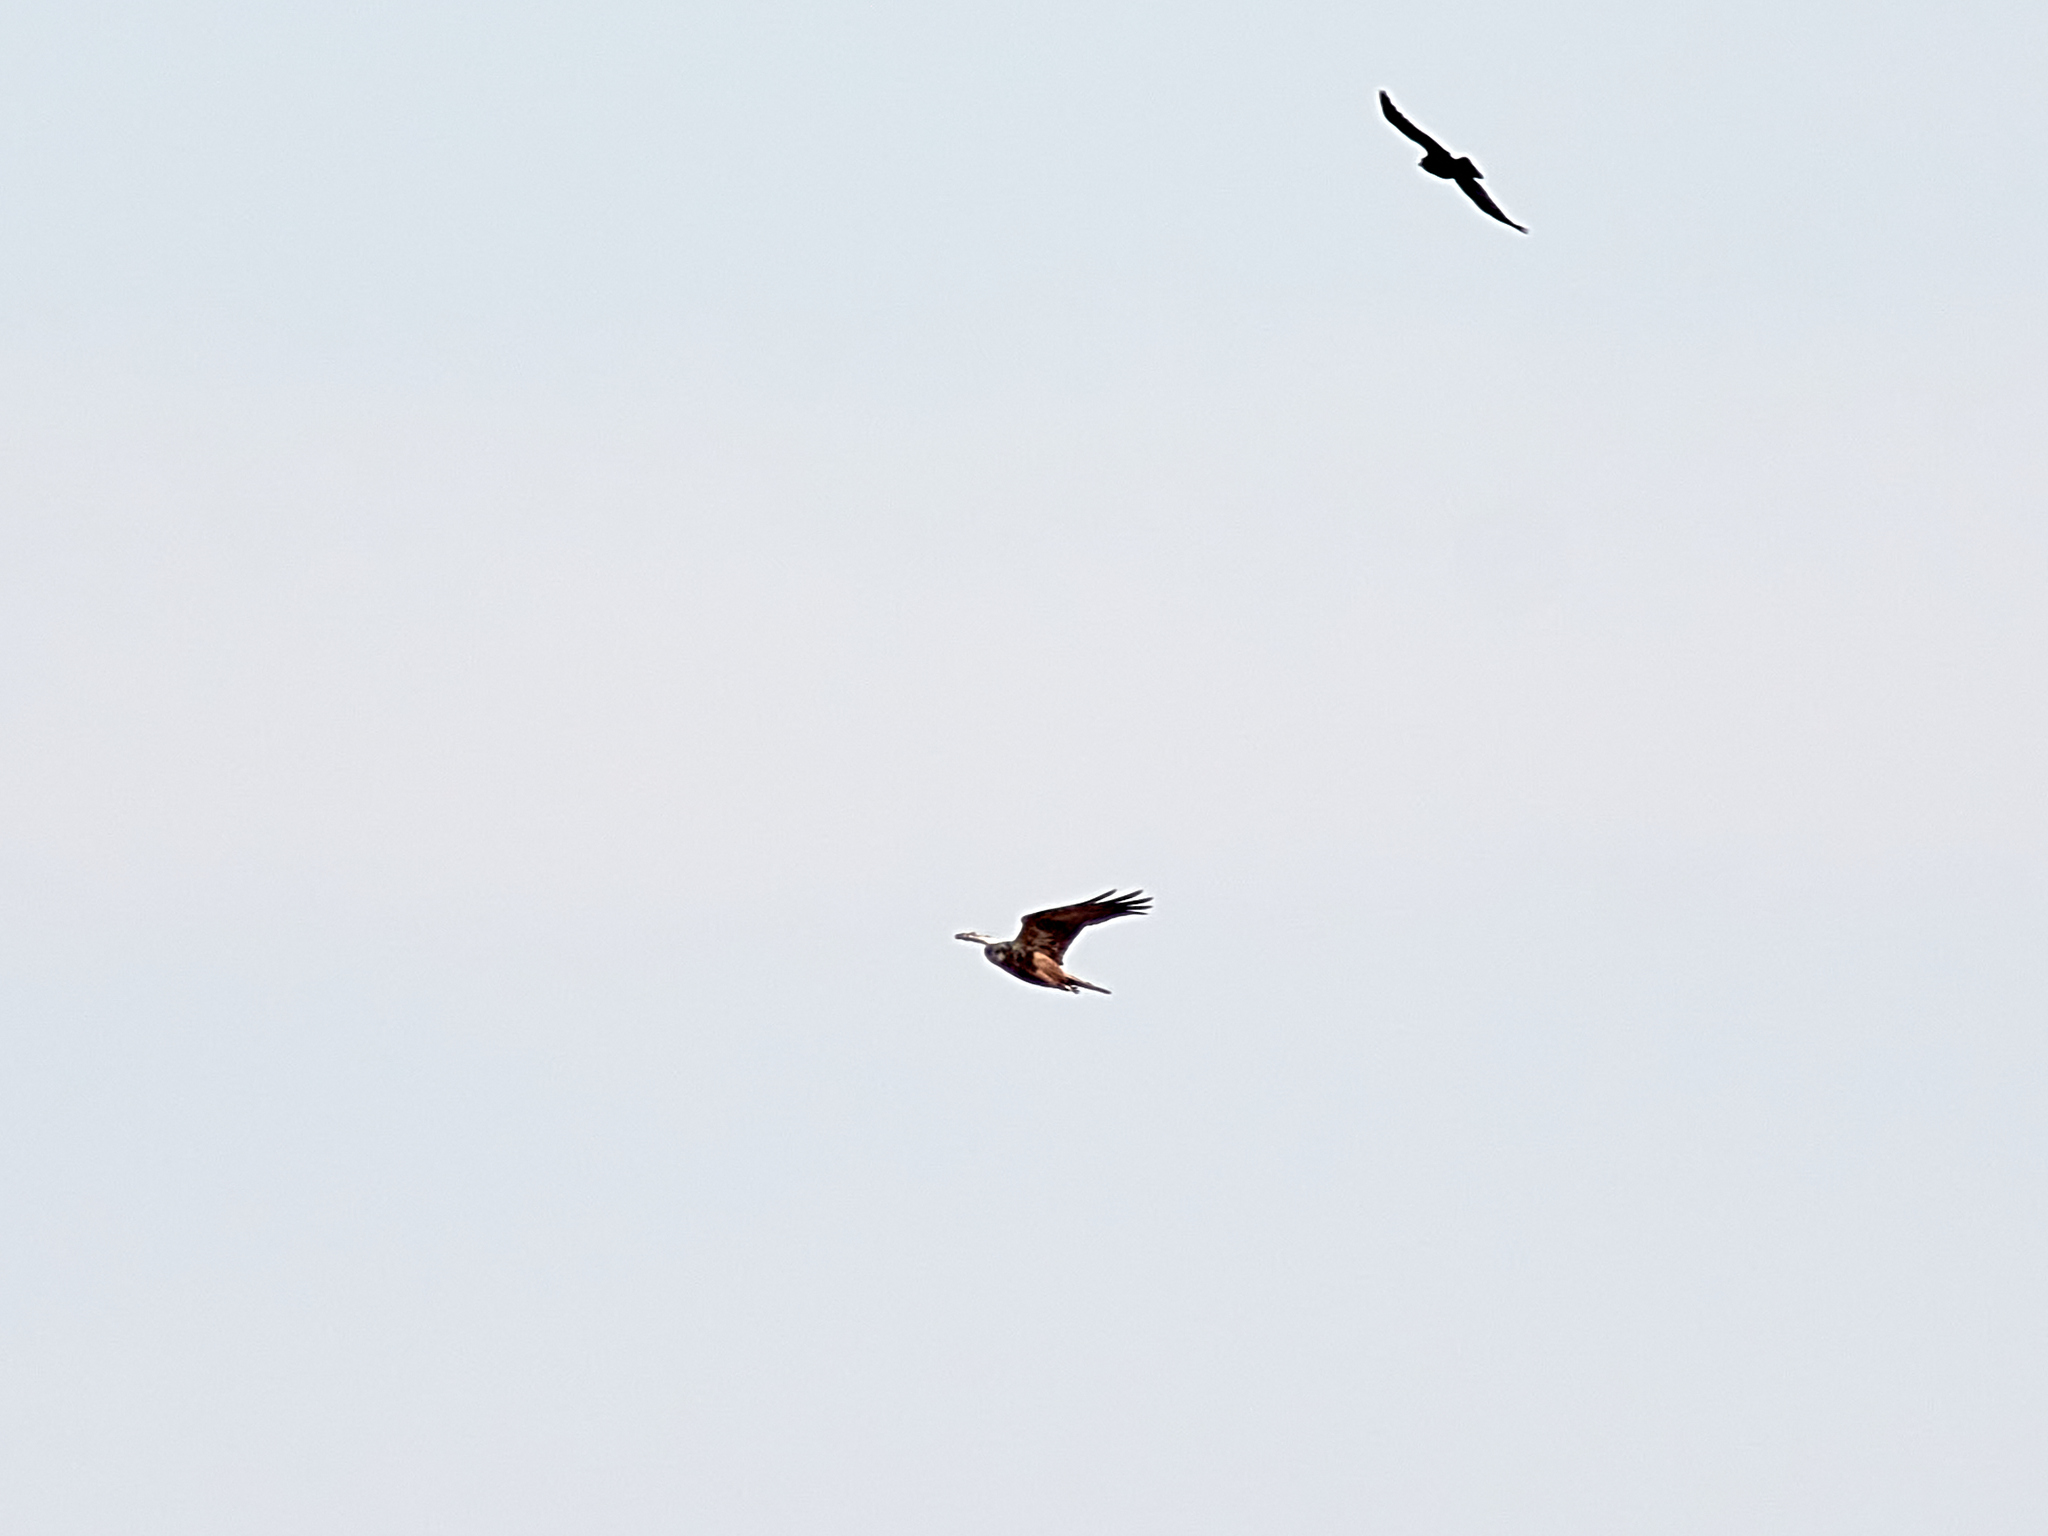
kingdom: Animalia
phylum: Chordata
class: Aves
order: Accipitriformes
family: Accipitridae
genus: Circus
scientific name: Circus aeruginosus
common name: Western marsh harrier
